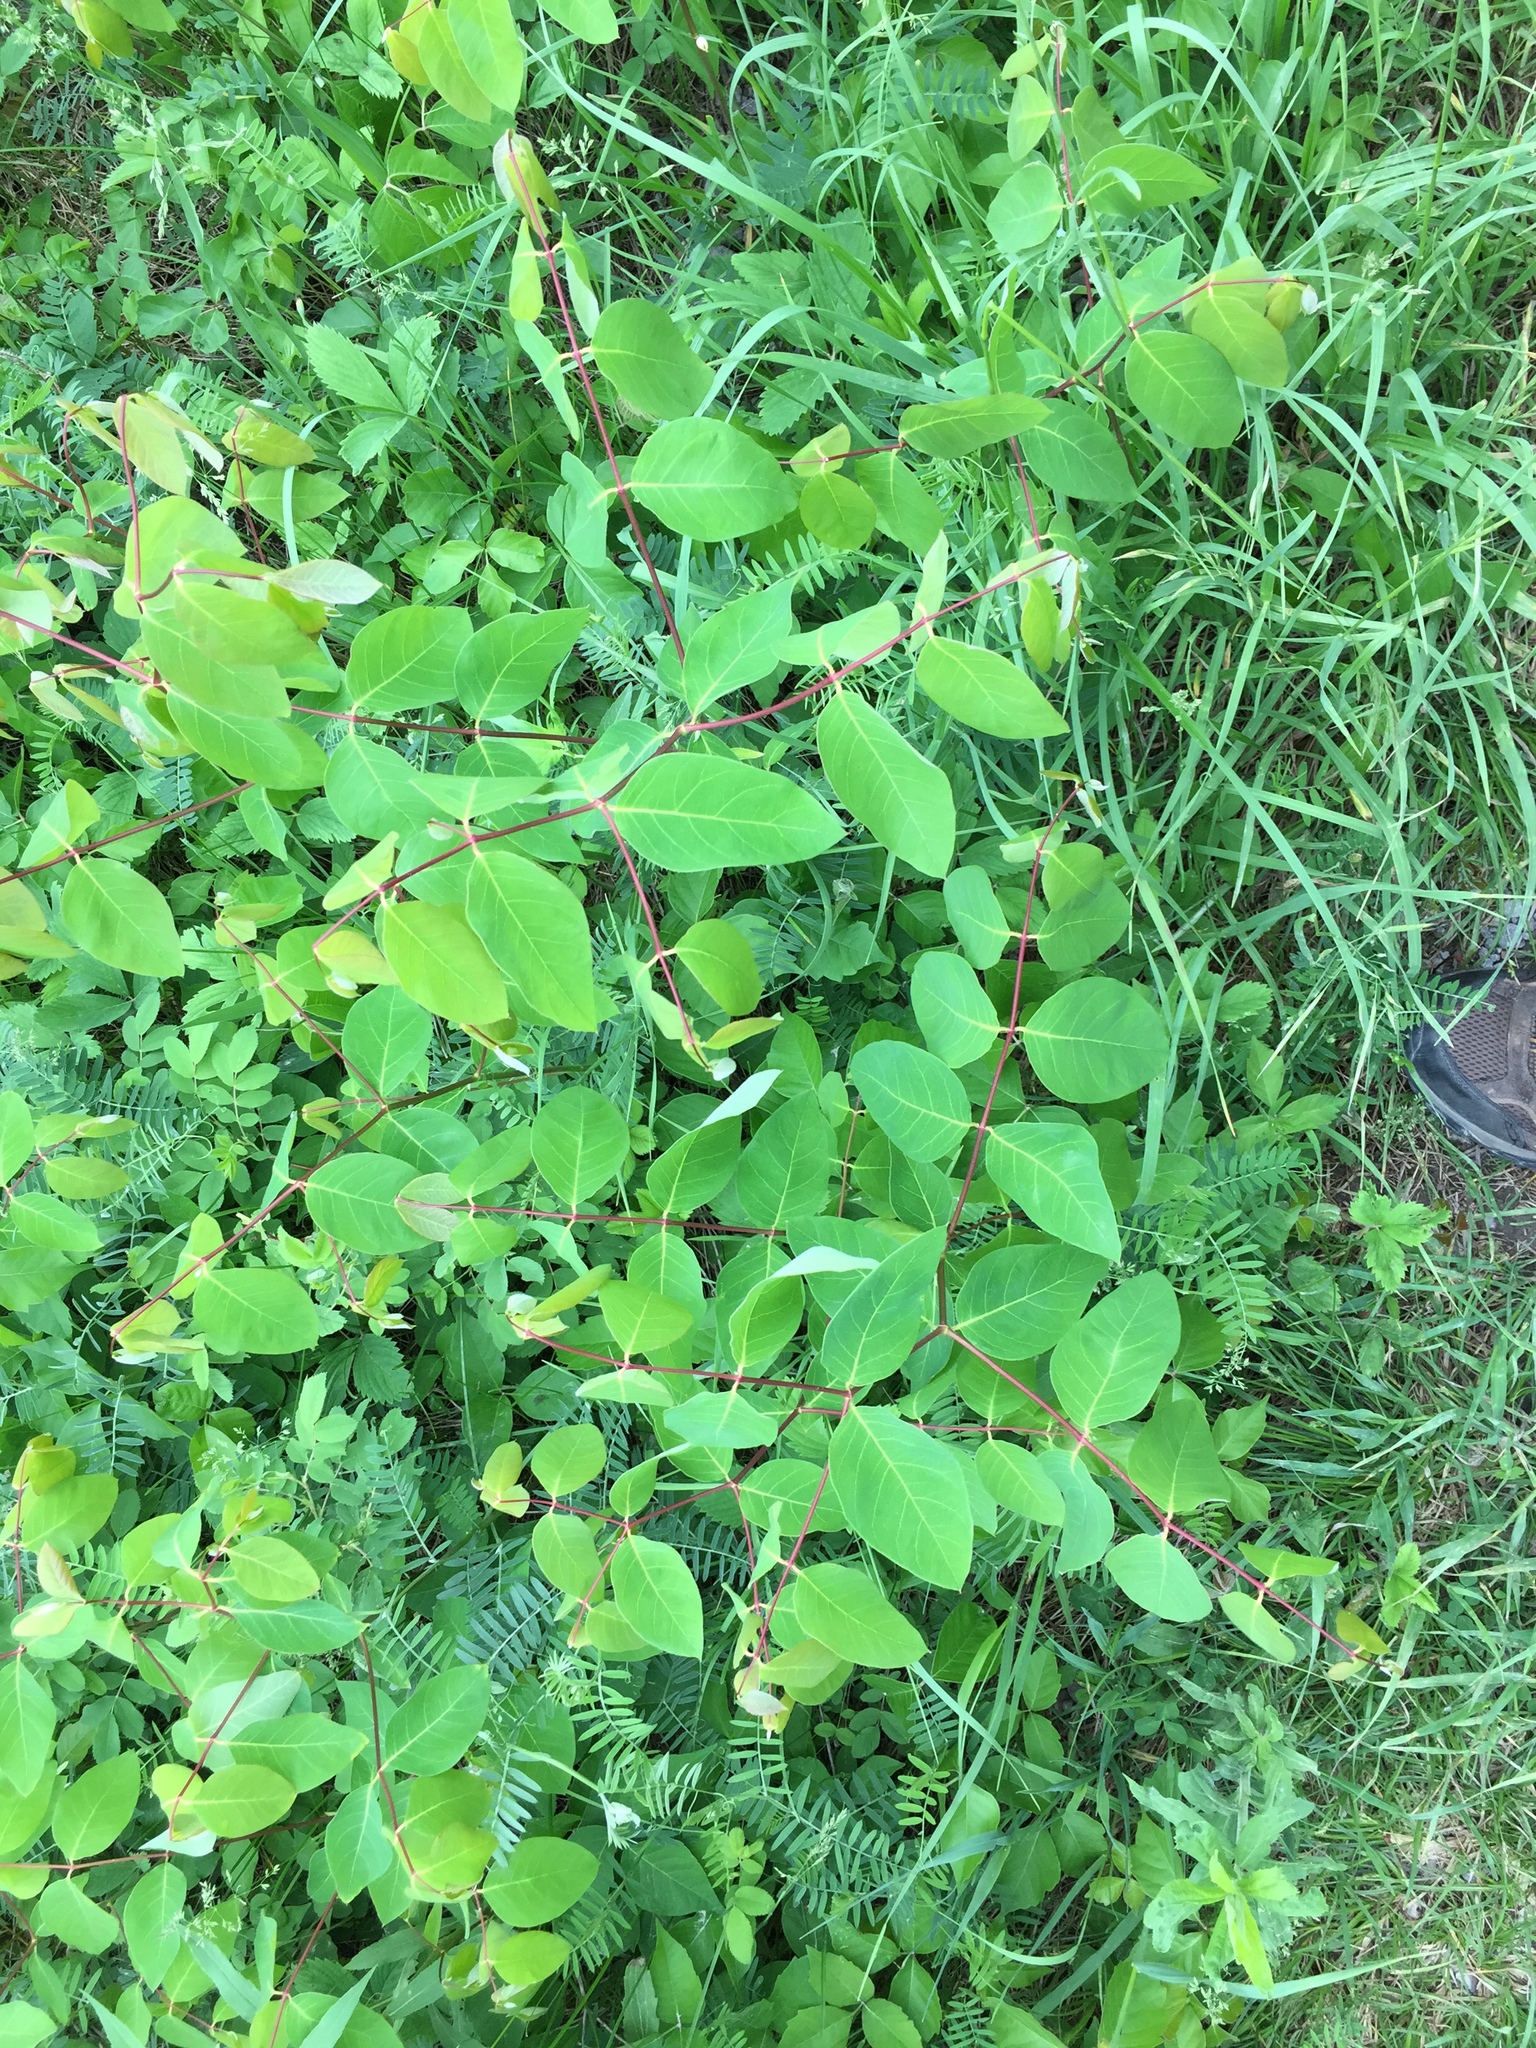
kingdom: Plantae
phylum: Tracheophyta
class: Magnoliopsida
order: Gentianales
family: Apocynaceae
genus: Apocynum
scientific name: Apocynum androsaemifolium
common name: Spreading dogbane
